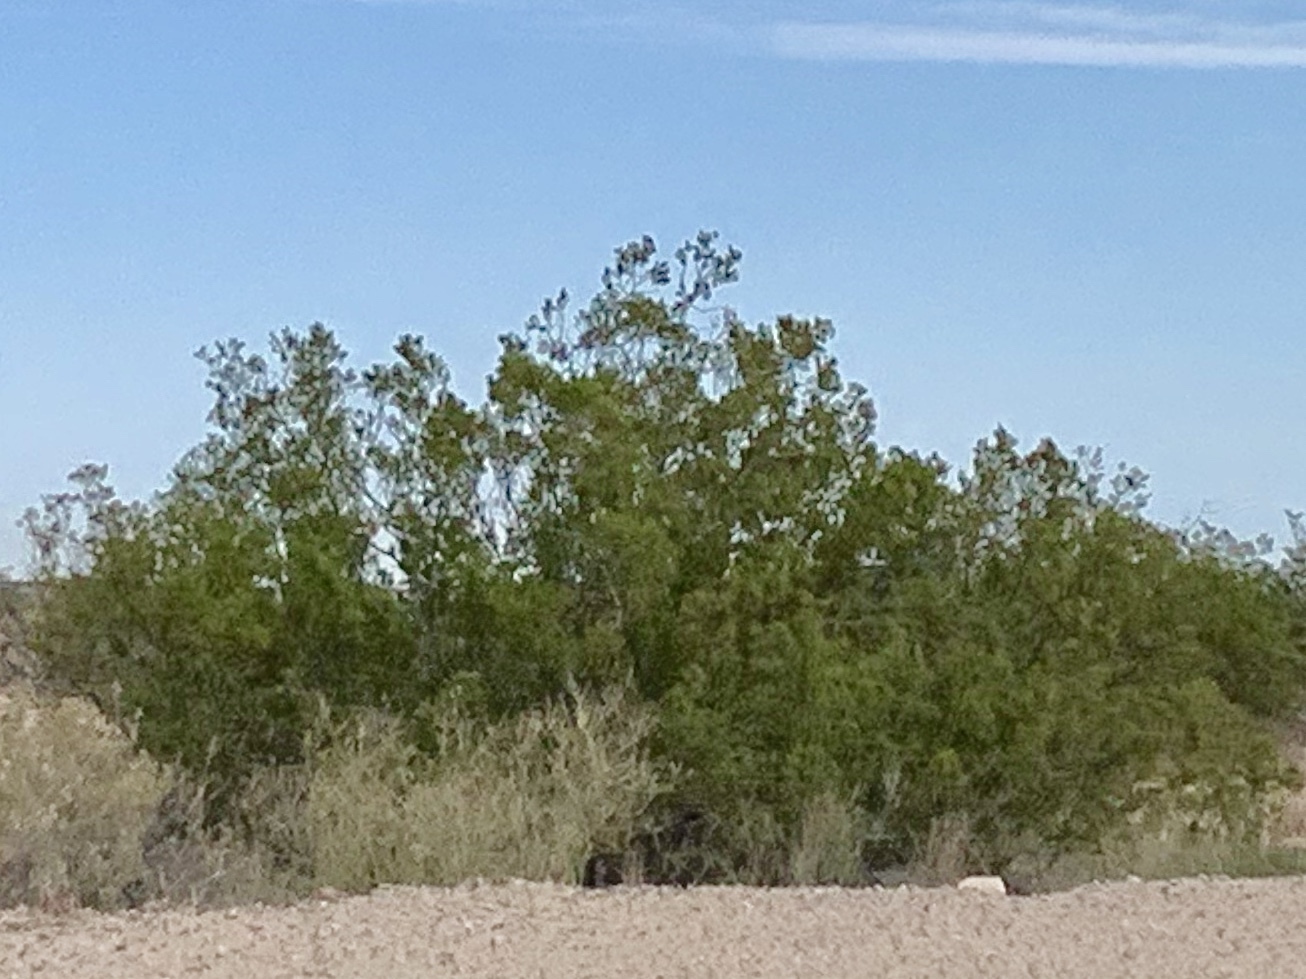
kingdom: Plantae
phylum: Tracheophyta
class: Magnoliopsida
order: Zygophyllales
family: Zygophyllaceae
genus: Larrea
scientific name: Larrea tridentata
